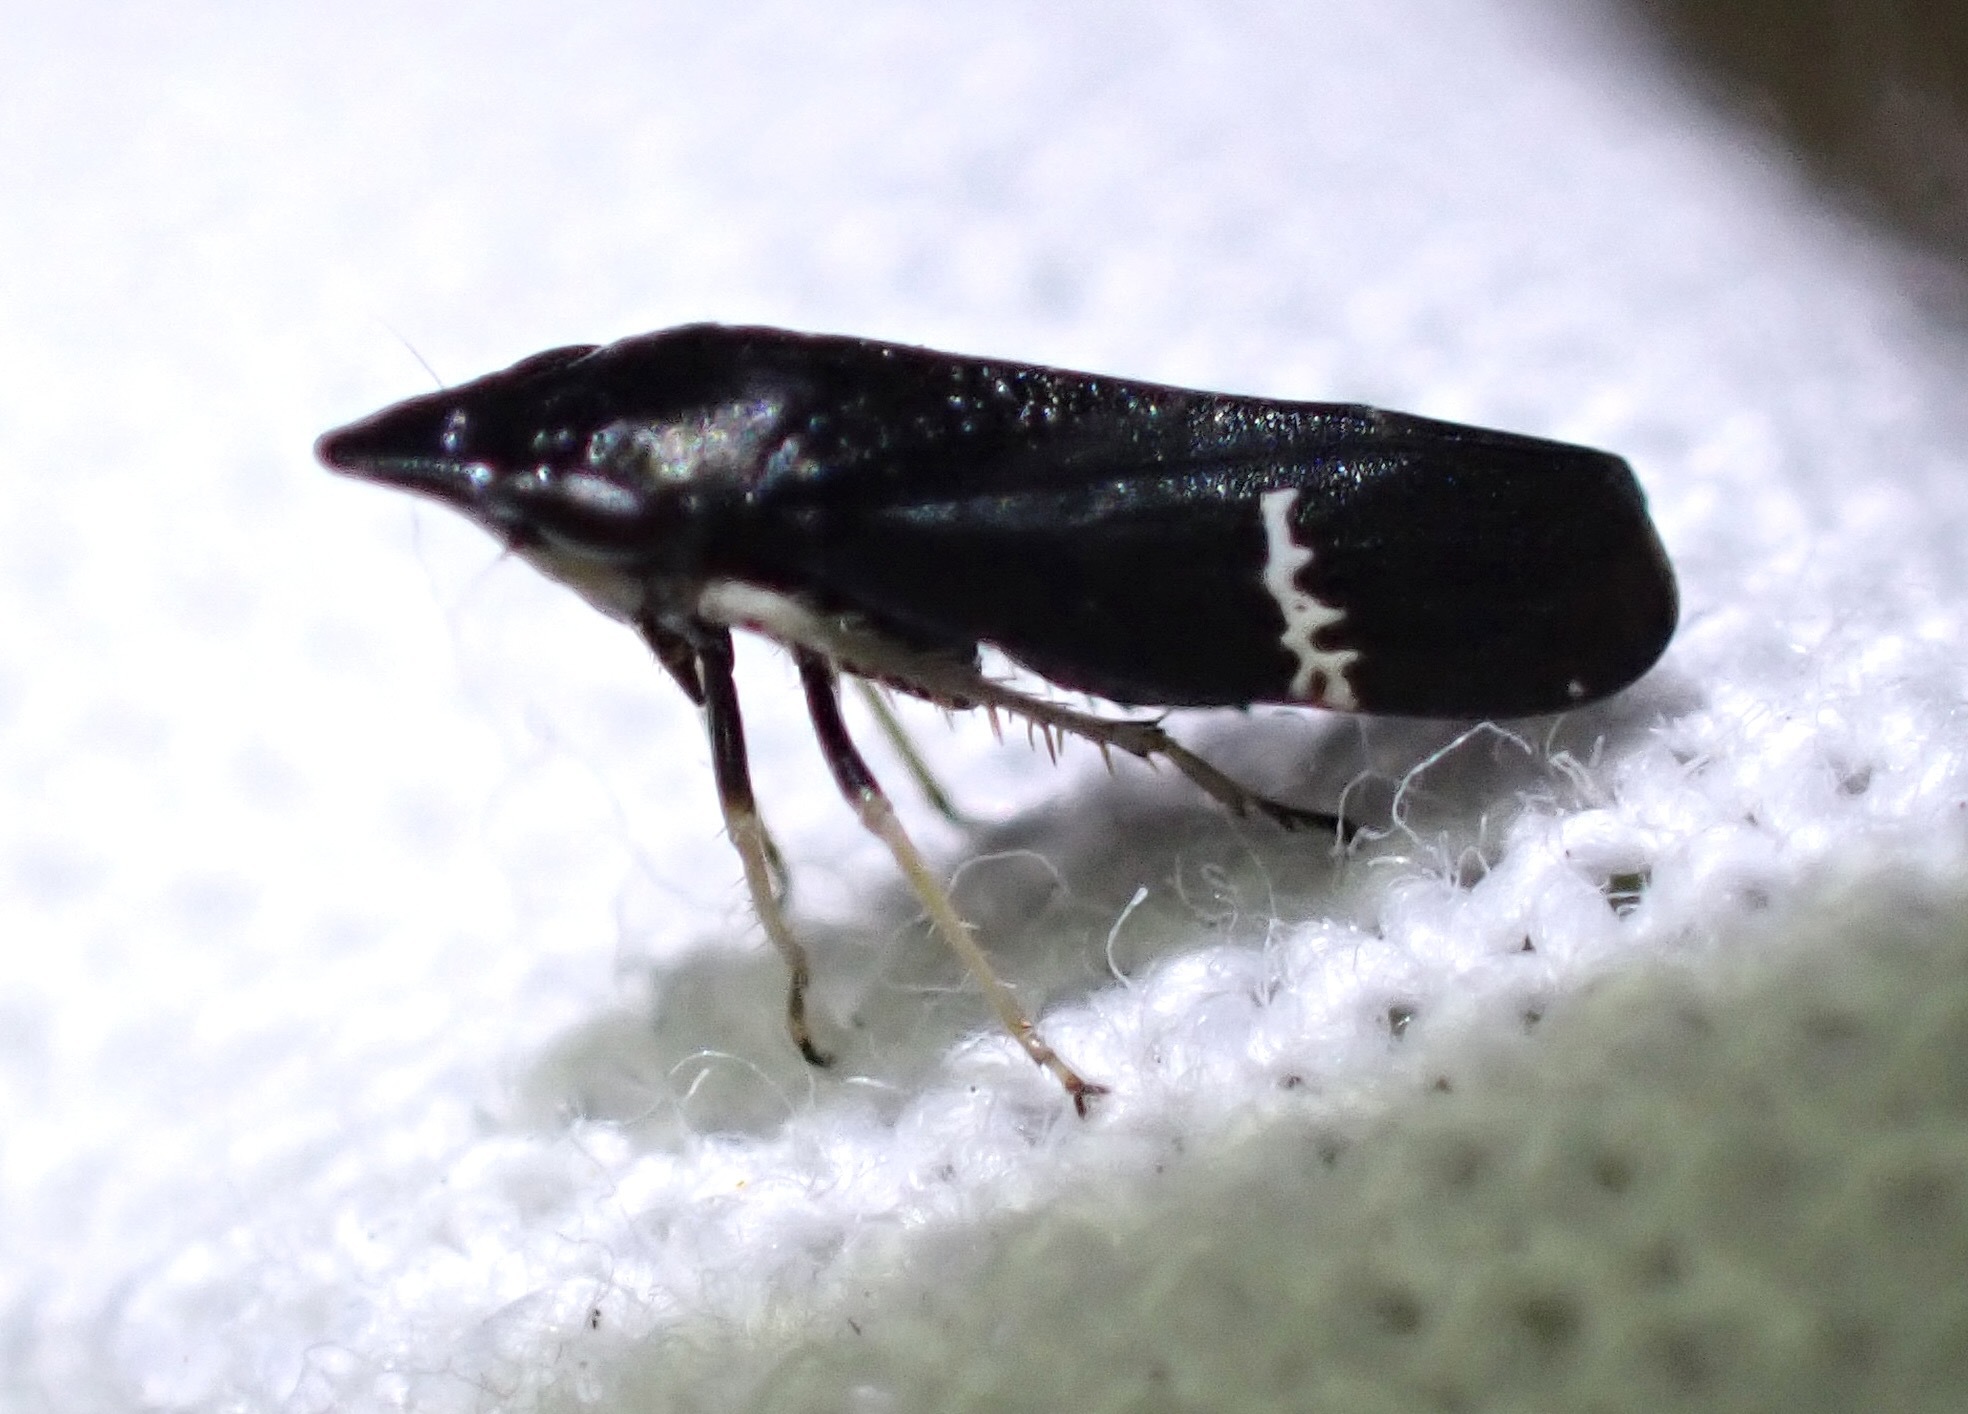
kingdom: Animalia
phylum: Arthropoda
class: Insecta
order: Hemiptera
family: Cicadellidae
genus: Cochlorhinus
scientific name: Cochlorhinus pluto
